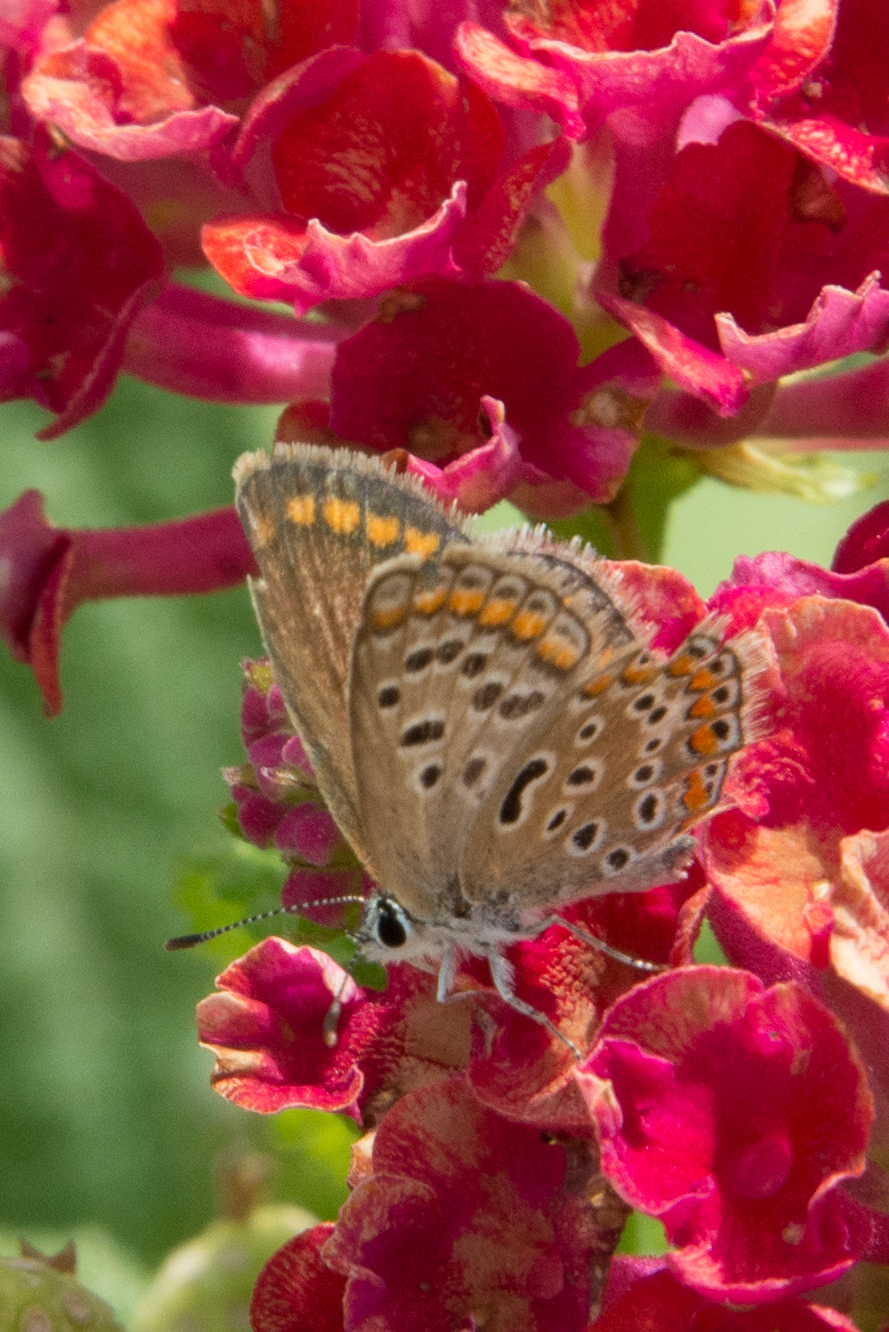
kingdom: Animalia
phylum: Arthropoda
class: Insecta
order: Lepidoptera
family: Lycaenidae
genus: Polyommatus
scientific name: Polyommatus celina
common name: Austaut's blue
